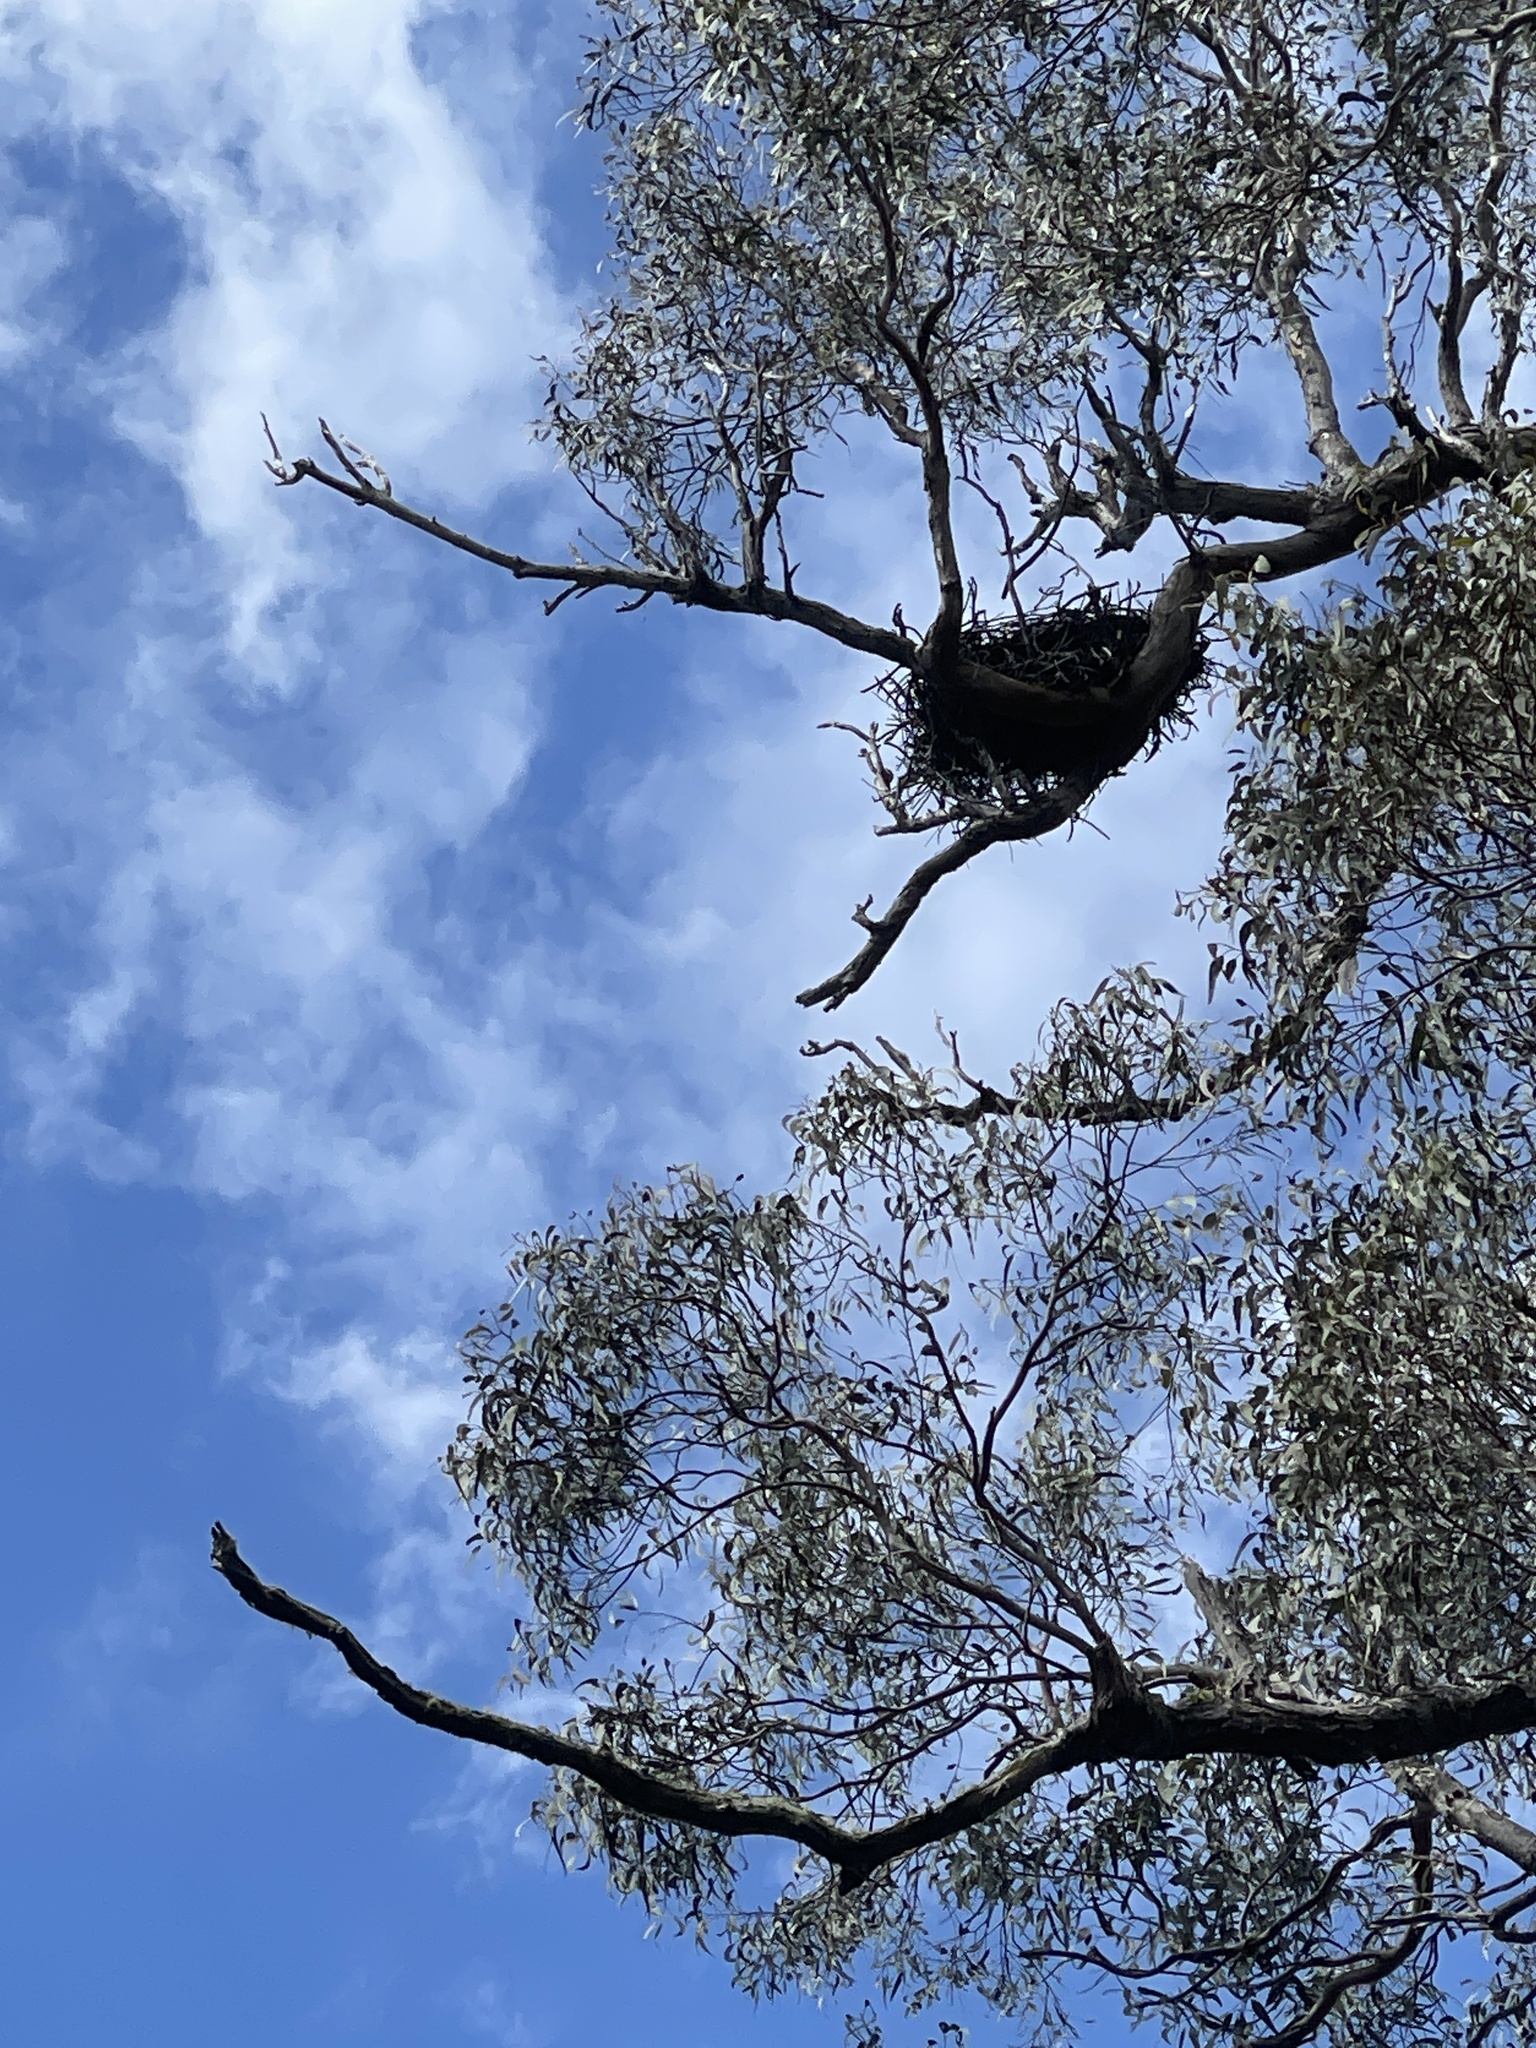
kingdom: Animalia
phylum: Chordata
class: Aves
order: Accipitriformes
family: Accipitridae
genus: Haliastur
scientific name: Haliastur sphenurus
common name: Whistling kite
